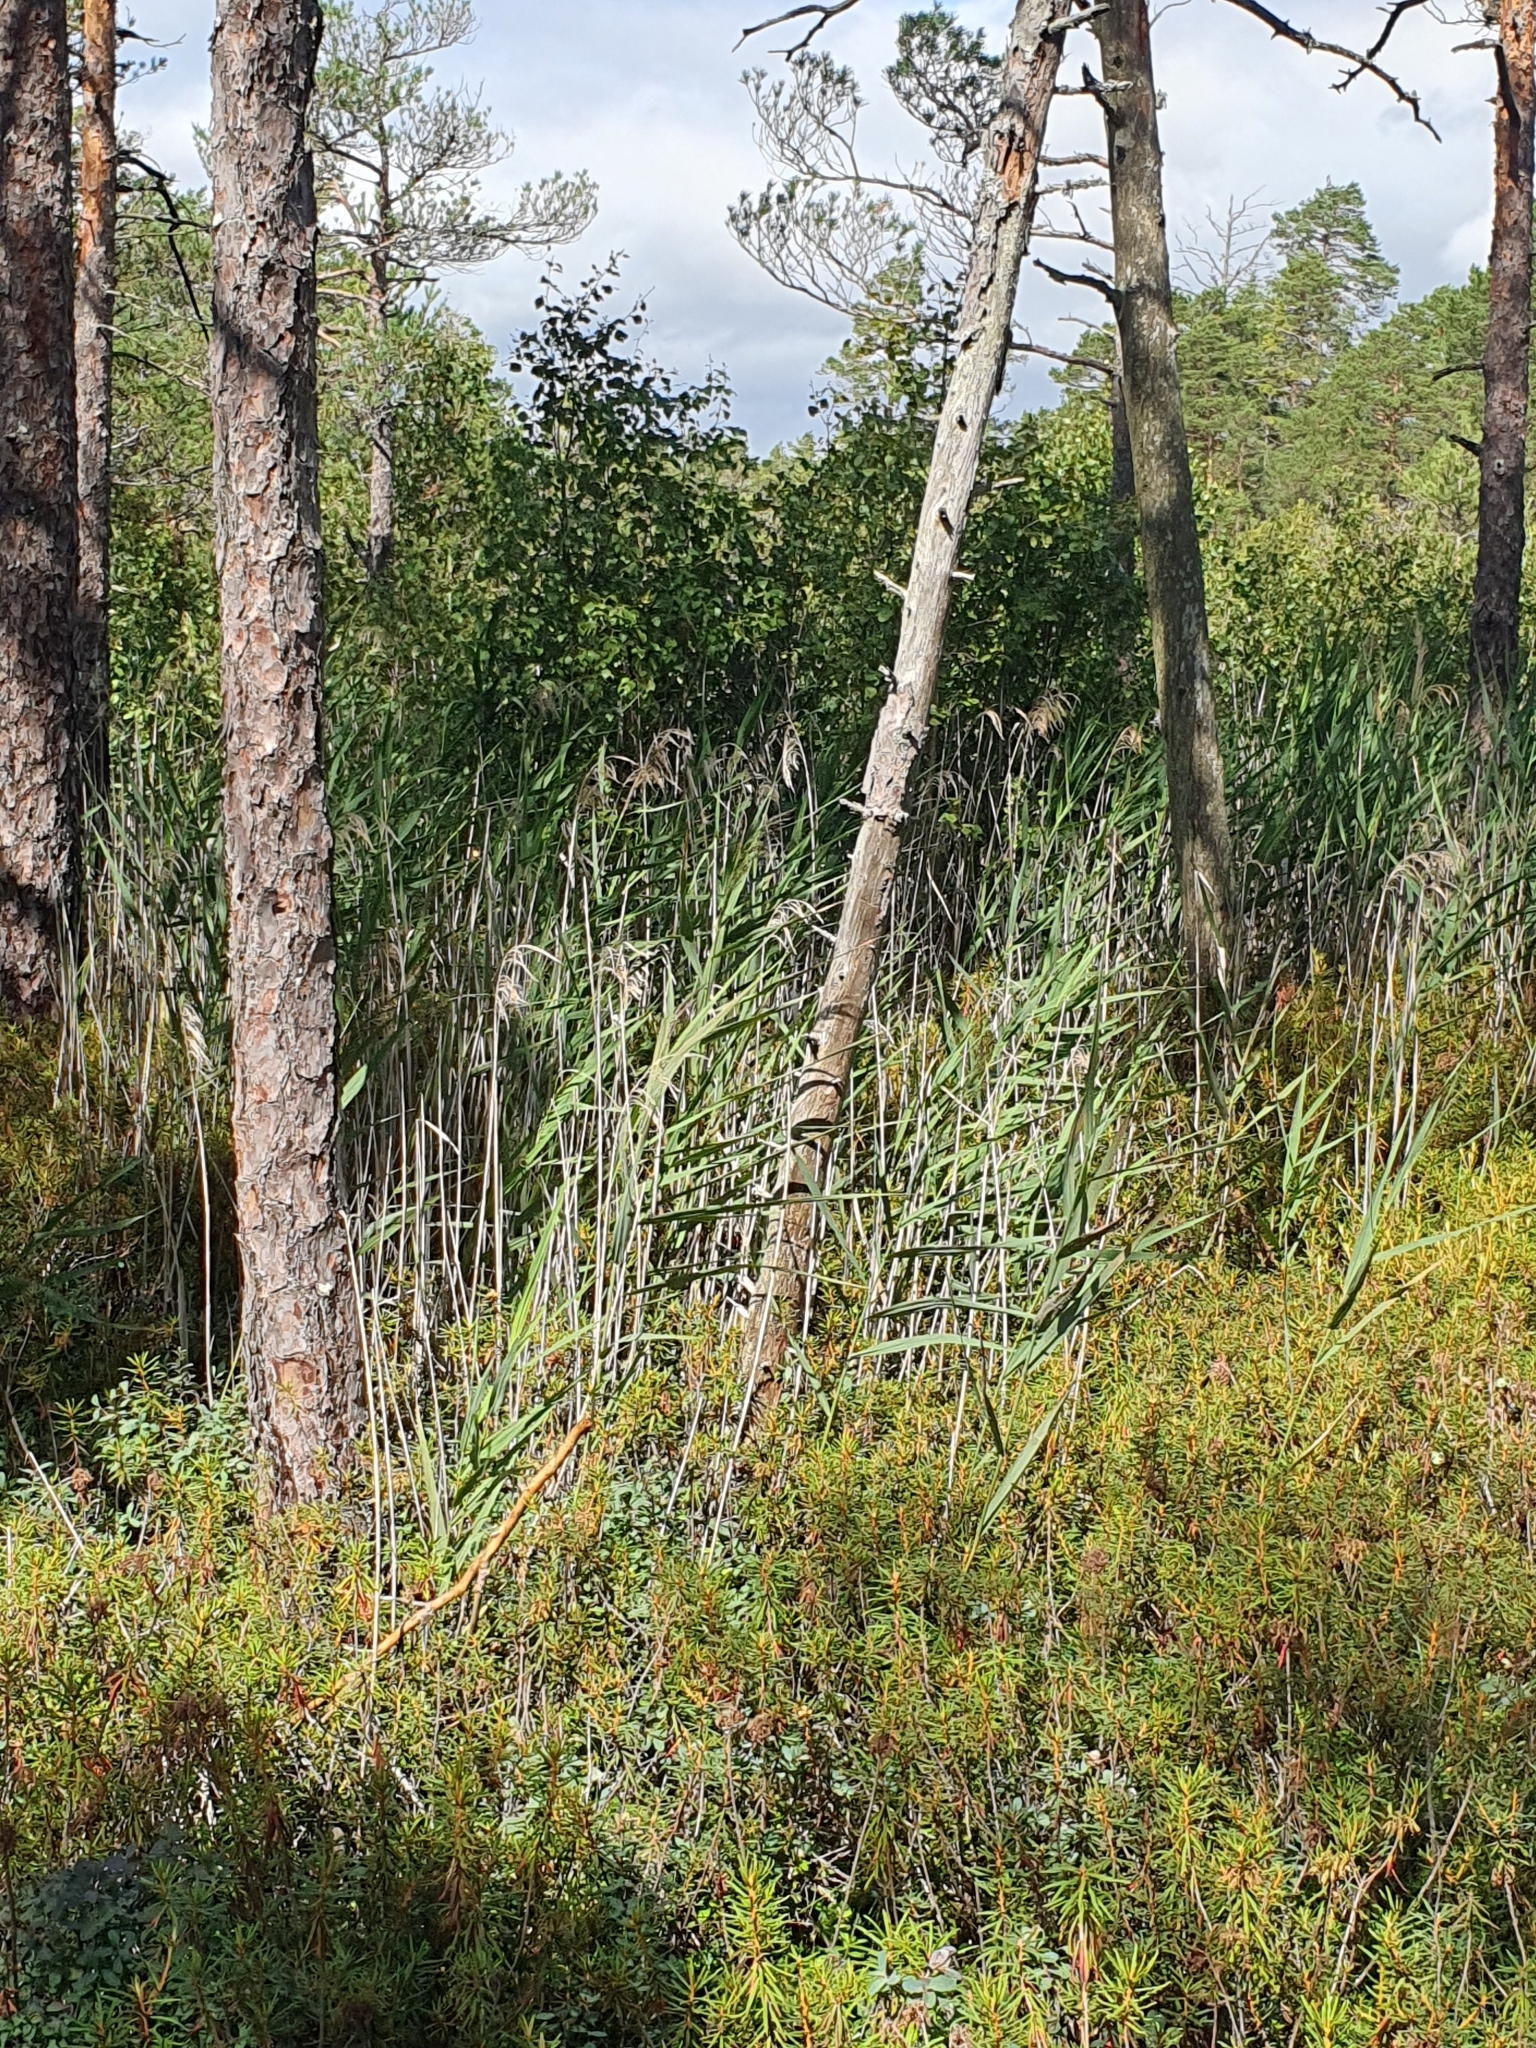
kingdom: Plantae
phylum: Tracheophyta
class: Liliopsida
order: Poales
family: Poaceae
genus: Phragmites
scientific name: Phragmites australis
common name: Common reed
